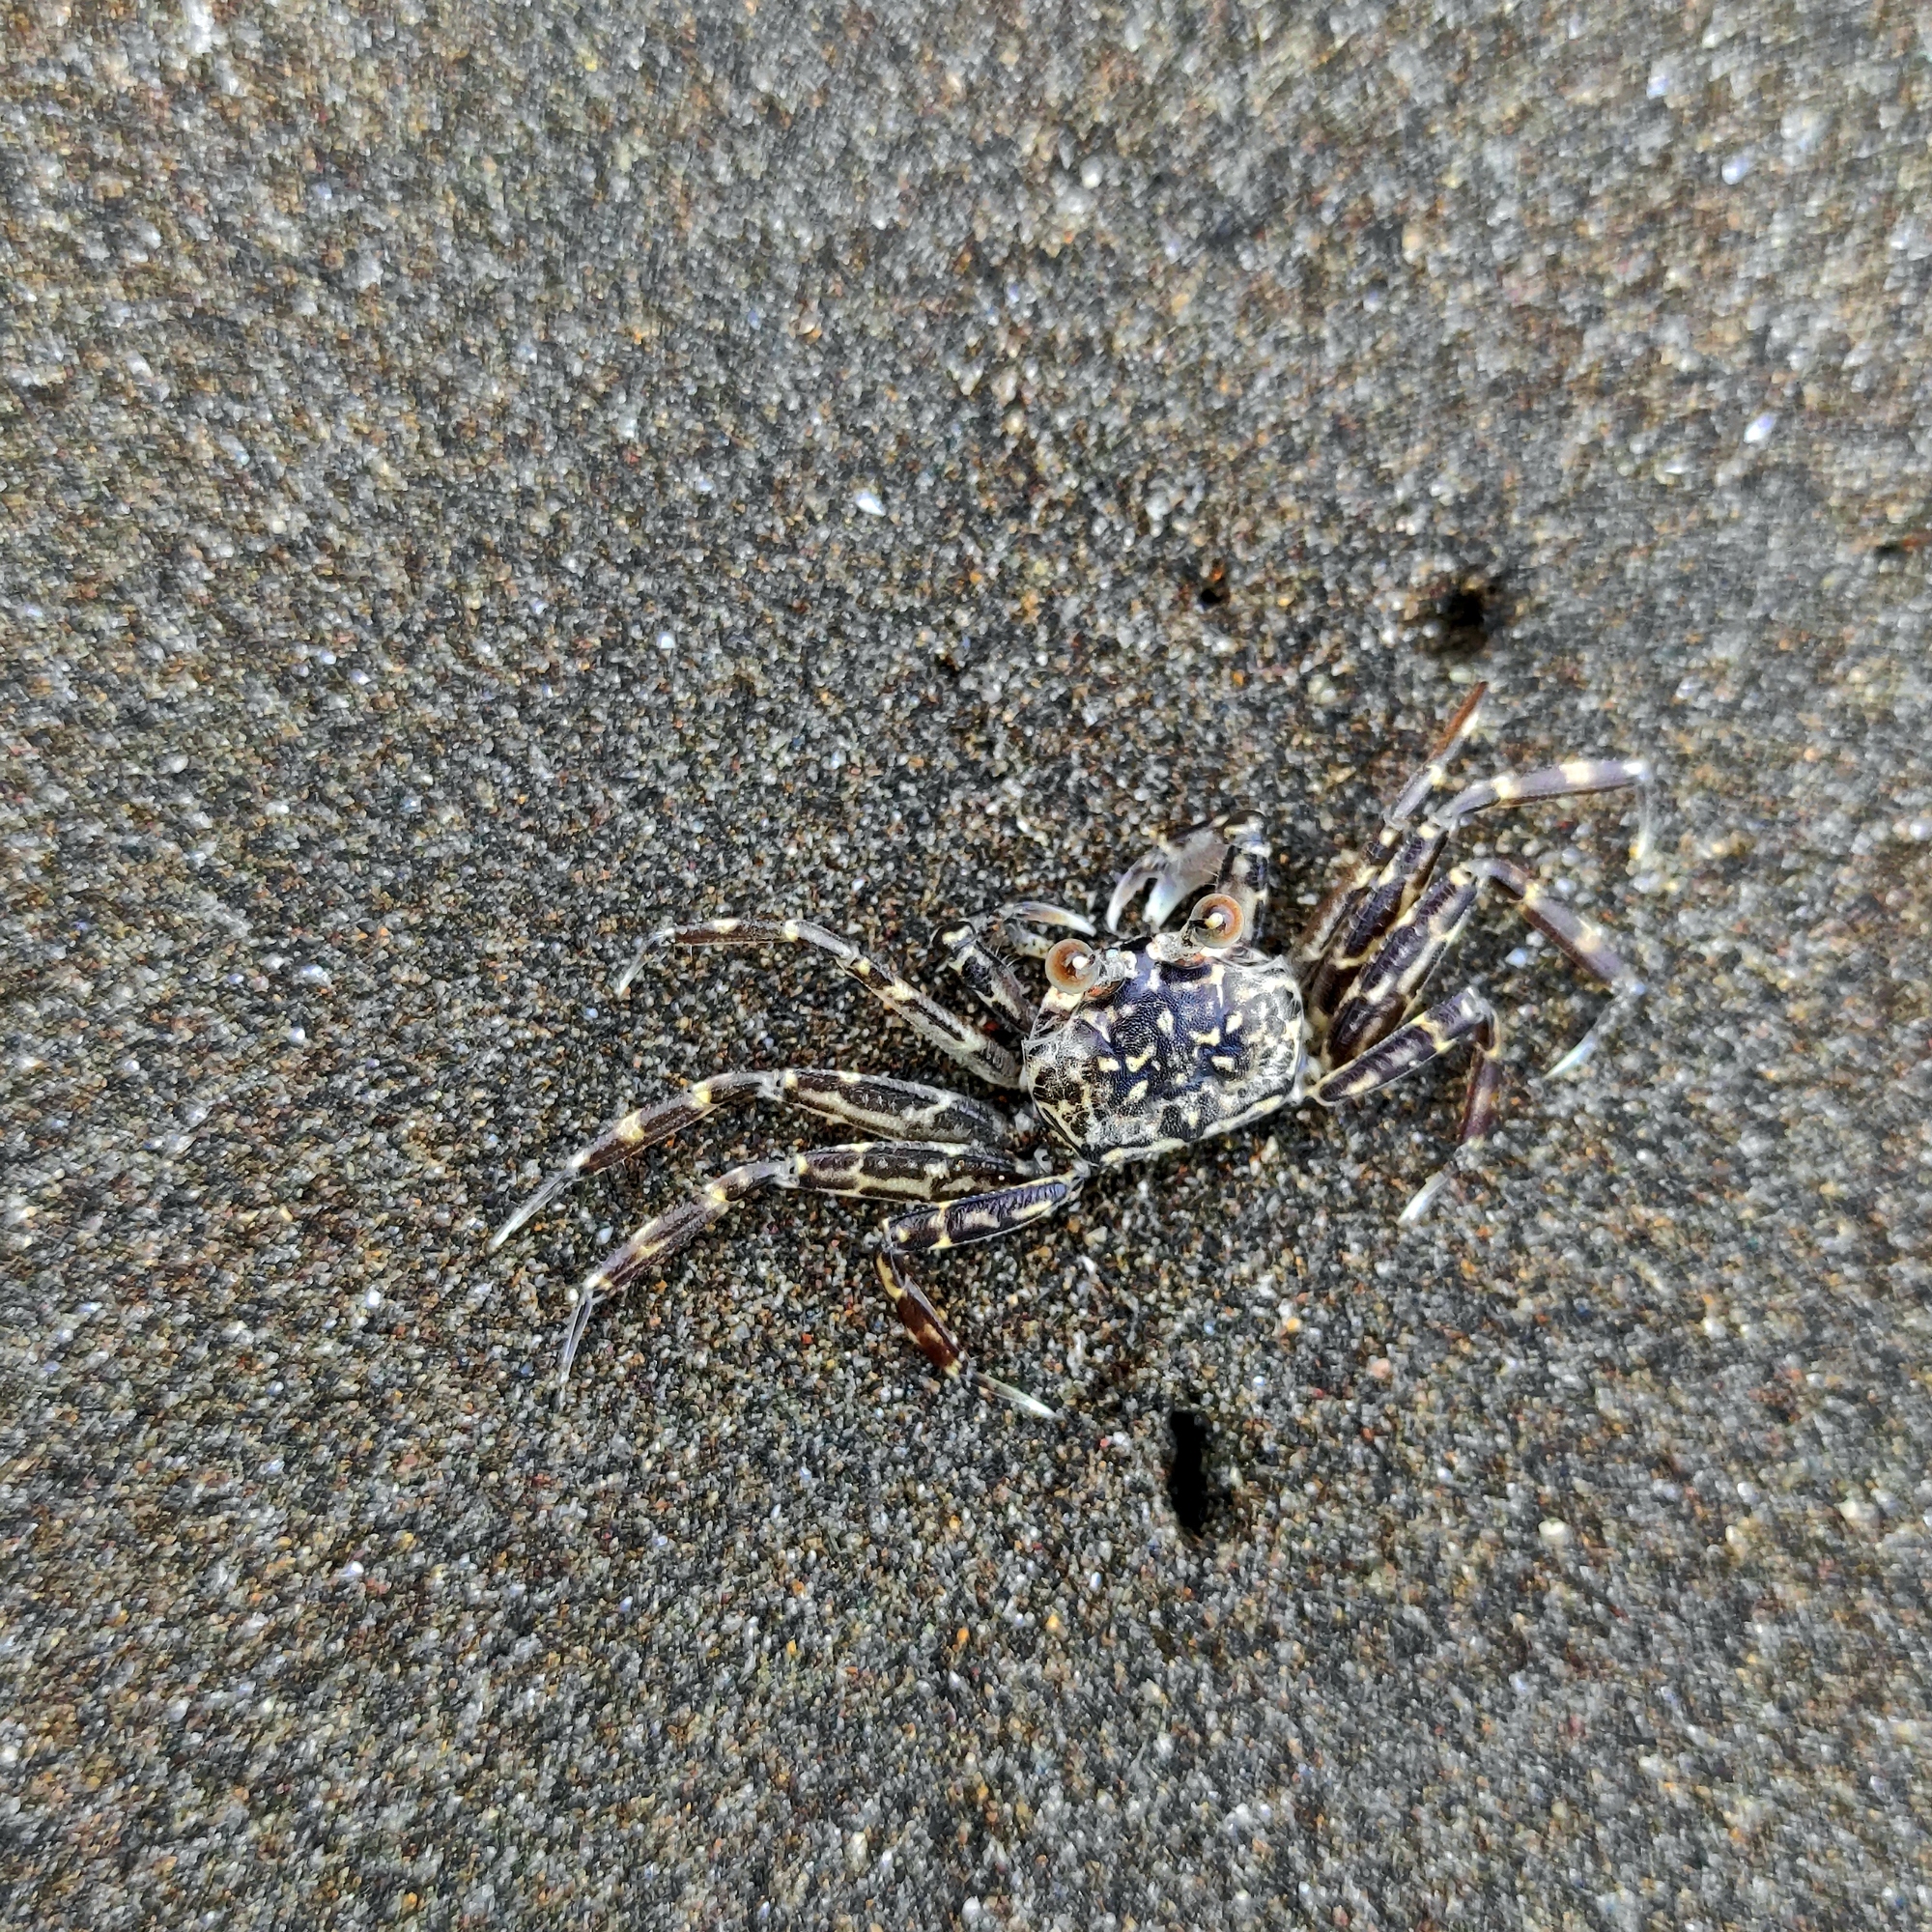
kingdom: Animalia
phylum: Arthropoda
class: Malacostraca
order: Decapoda
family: Ocypodidae
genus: Ocypode
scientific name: Ocypode kuhlii
